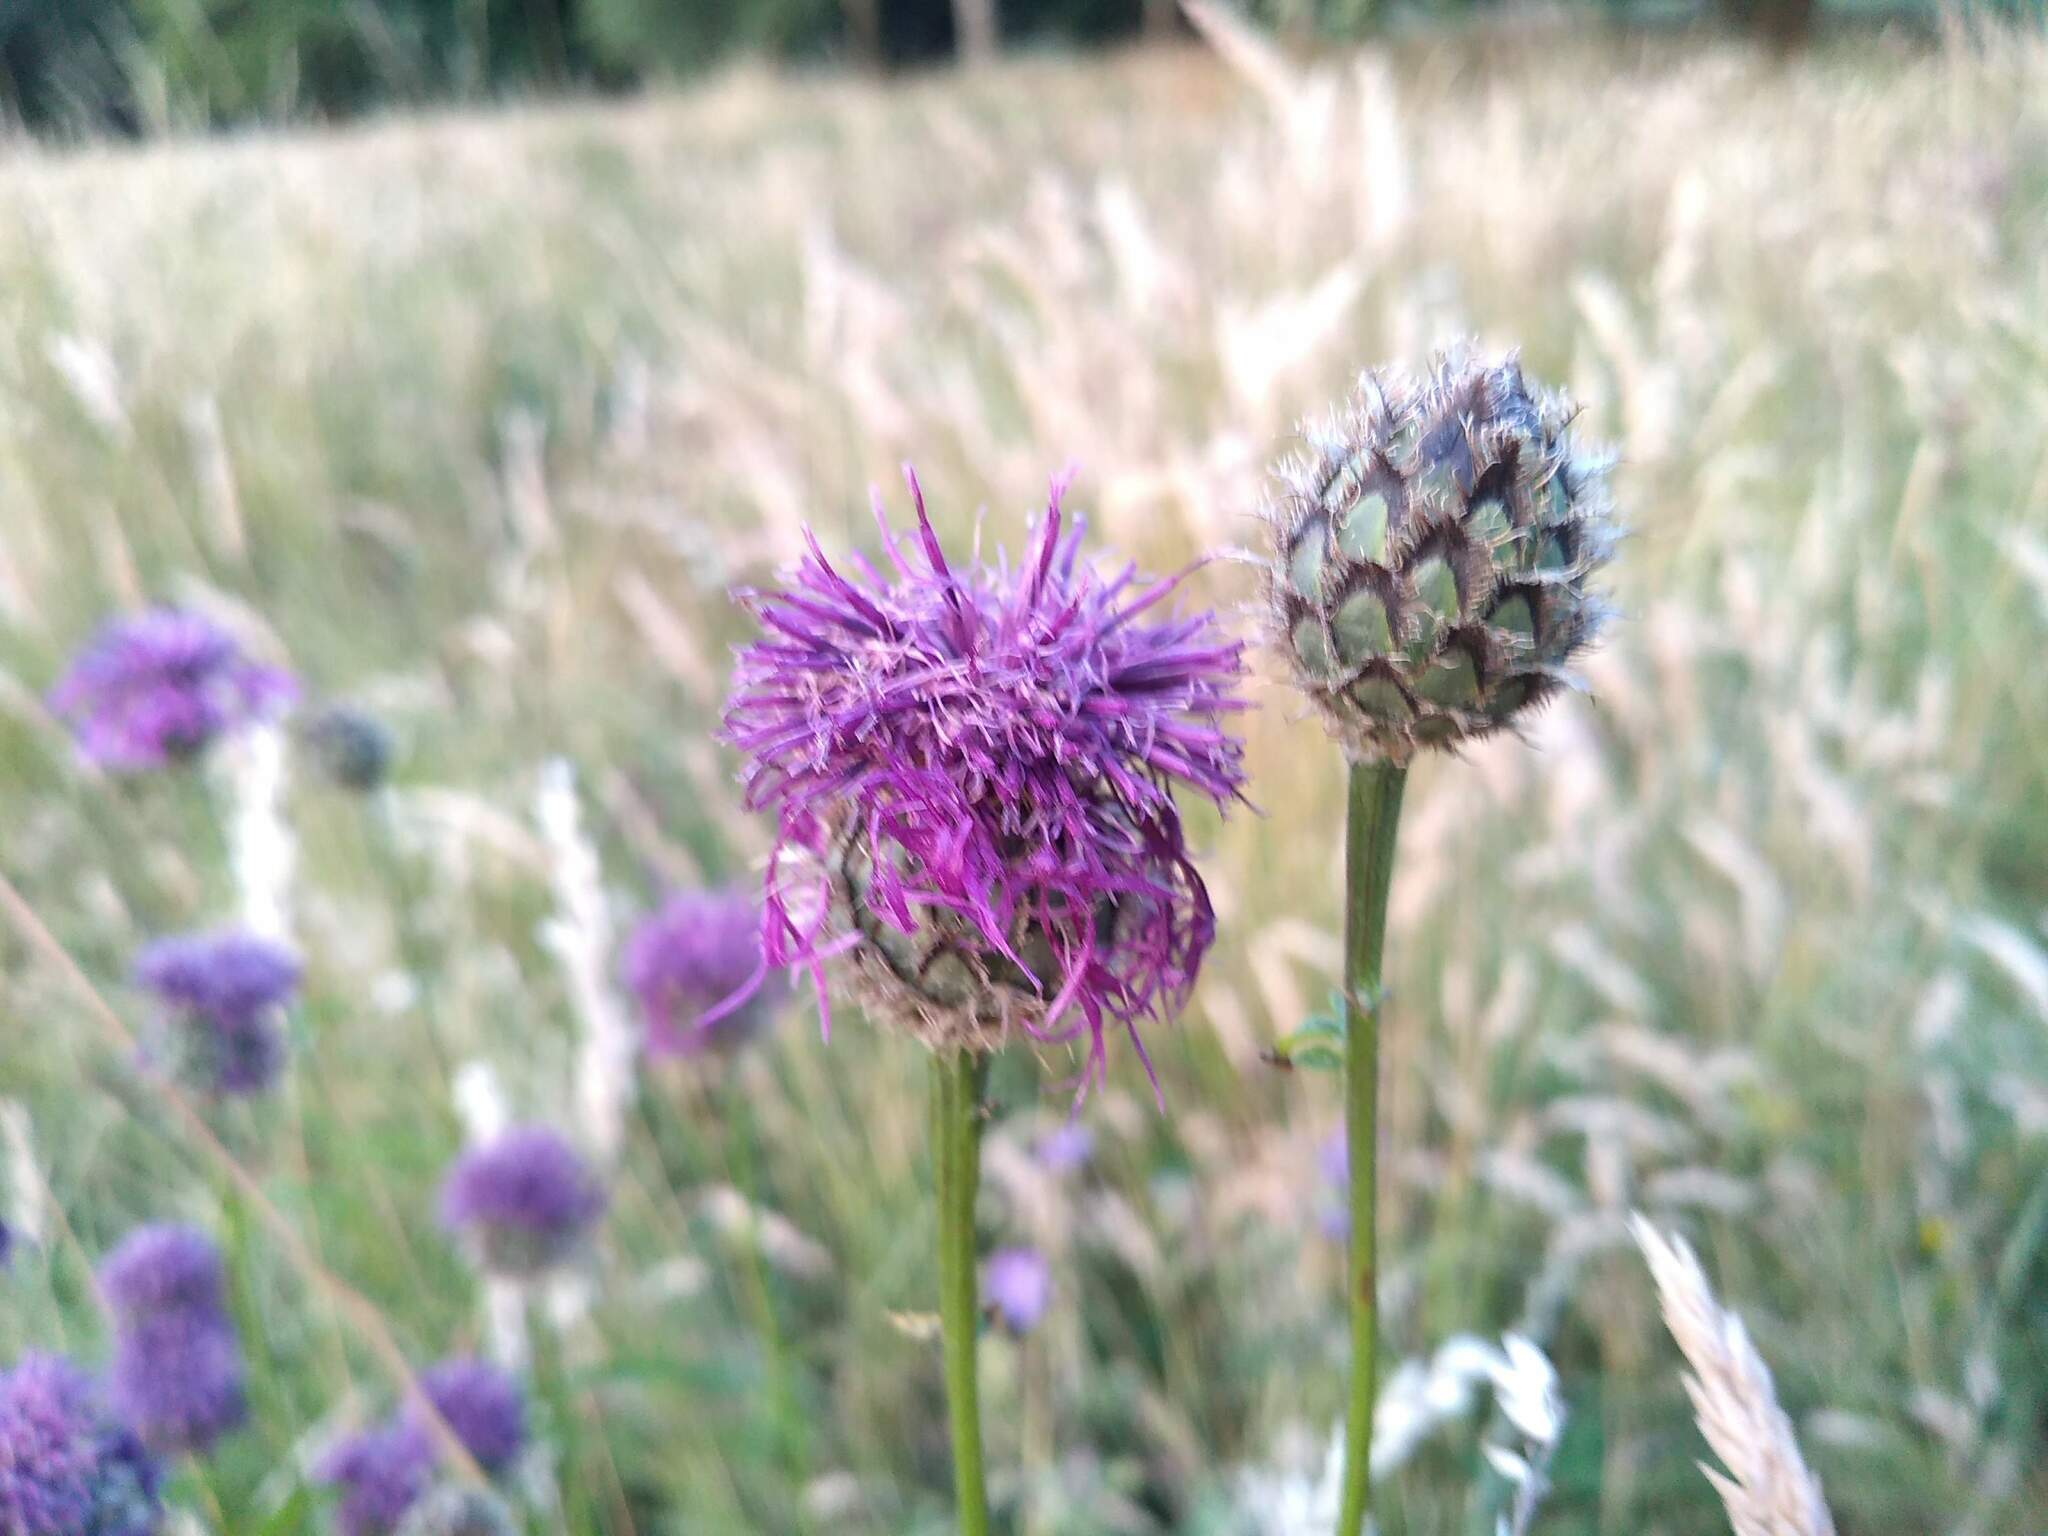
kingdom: Plantae
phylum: Tracheophyta
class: Magnoliopsida
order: Asterales
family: Asteraceae
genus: Centaurea
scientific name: Centaurea scabiosa
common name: Greater knapweed
